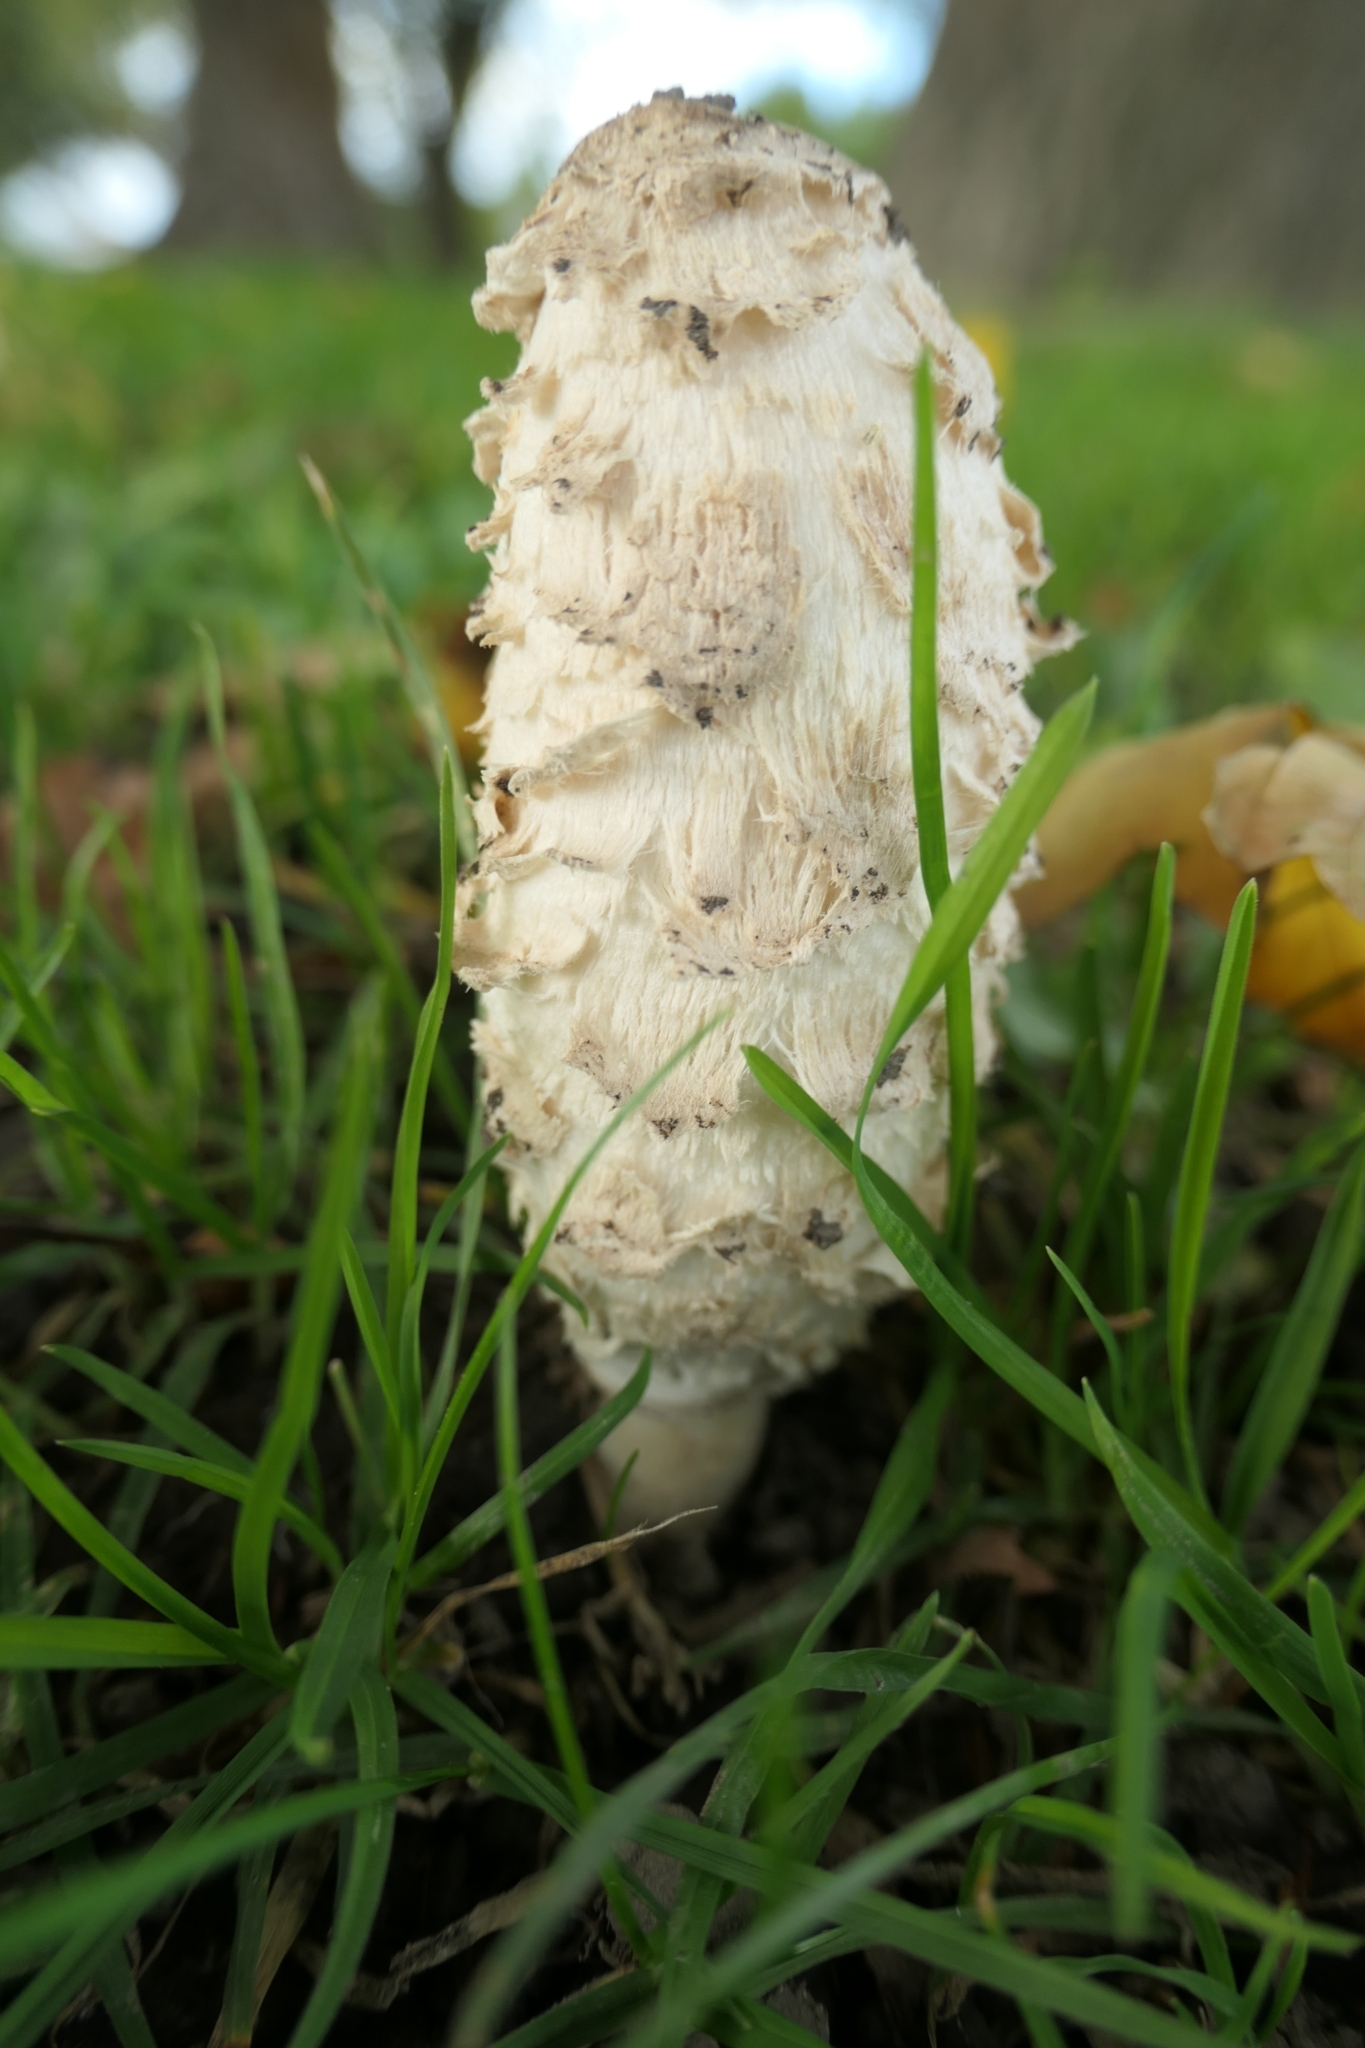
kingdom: Fungi
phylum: Basidiomycota
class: Agaricomycetes
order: Agaricales
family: Agaricaceae
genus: Coprinus
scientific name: Coprinus comatus
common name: Lawyer's wig
